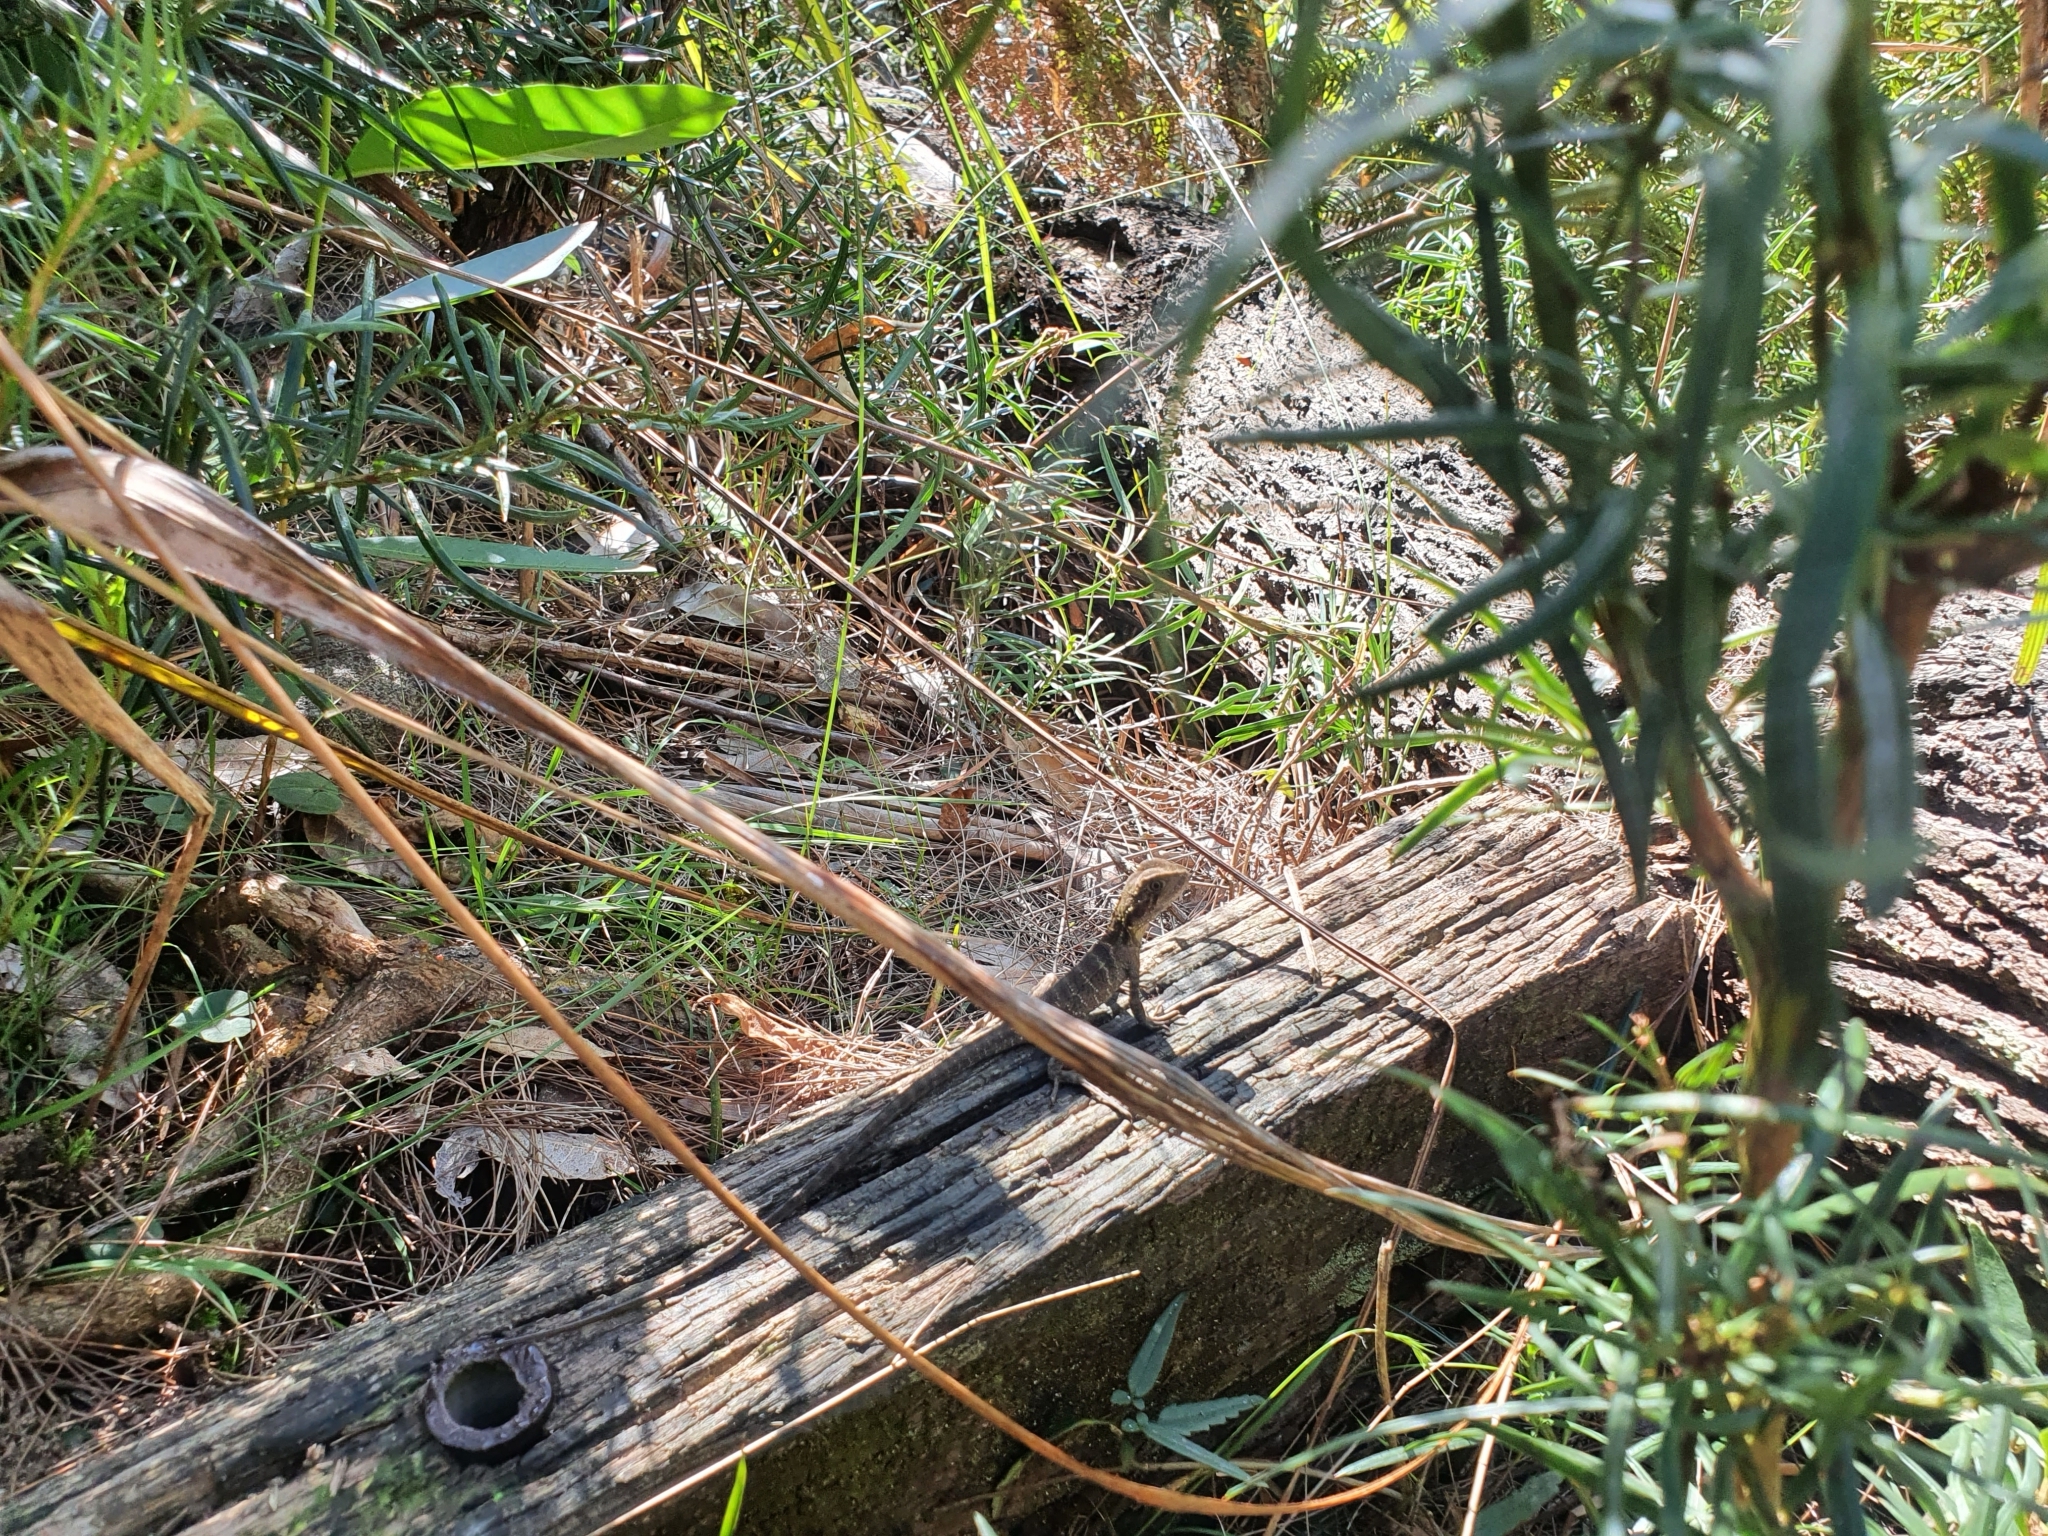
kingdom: Animalia
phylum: Chordata
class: Squamata
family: Agamidae
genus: Intellagama
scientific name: Intellagama lesueurii
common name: Eastern water dragon
